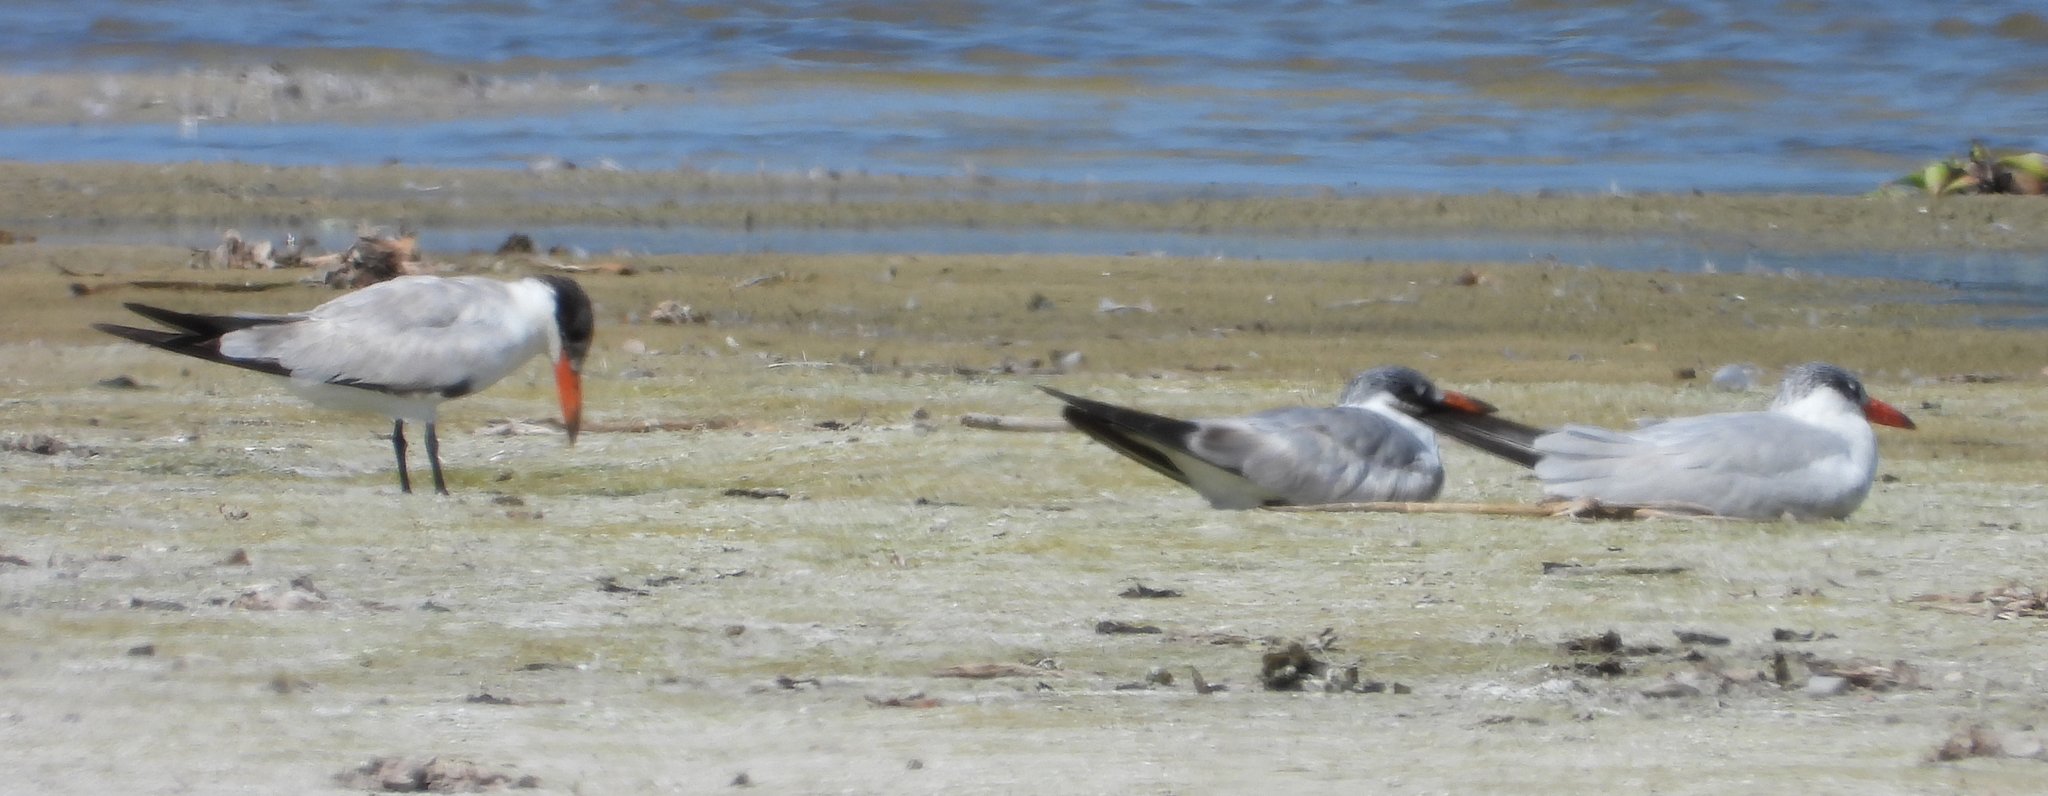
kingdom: Animalia
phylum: Chordata
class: Aves
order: Charadriiformes
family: Laridae
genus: Hydroprogne
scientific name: Hydroprogne caspia
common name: Caspian tern
